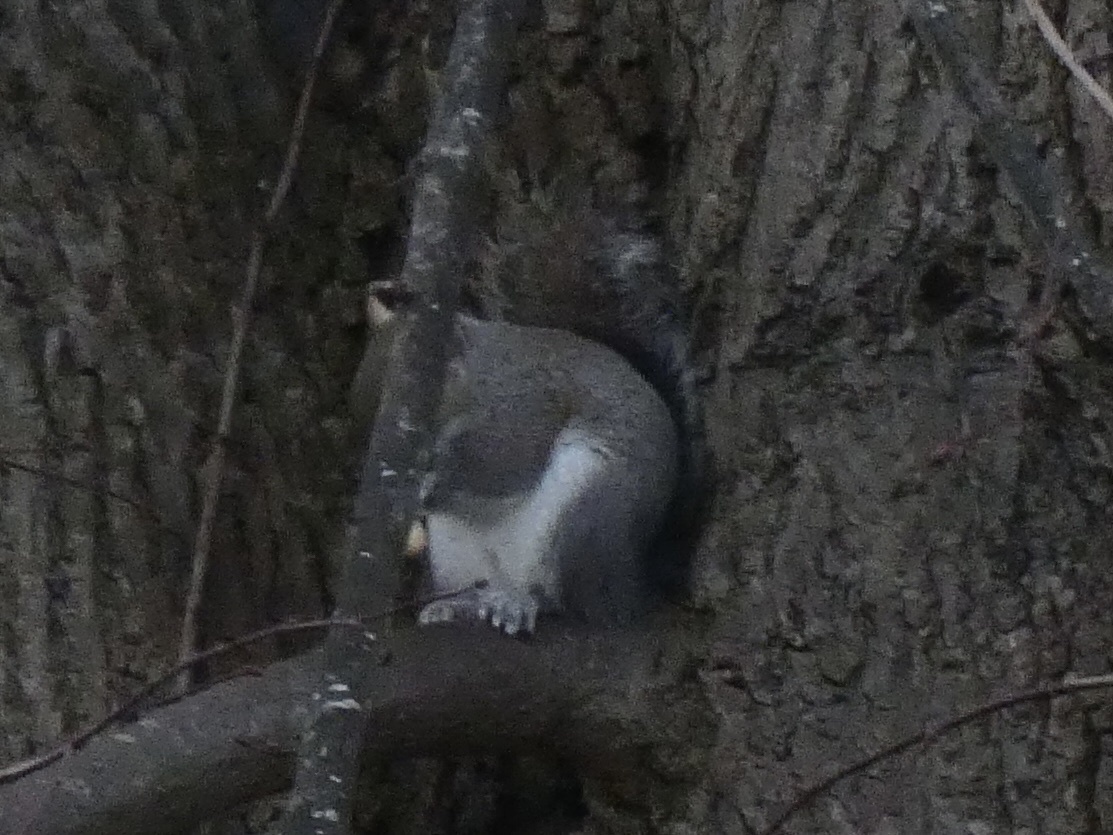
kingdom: Animalia
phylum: Chordata
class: Mammalia
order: Rodentia
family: Sciuridae
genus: Sciurus
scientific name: Sciurus carolinensis
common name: Eastern gray squirrel
